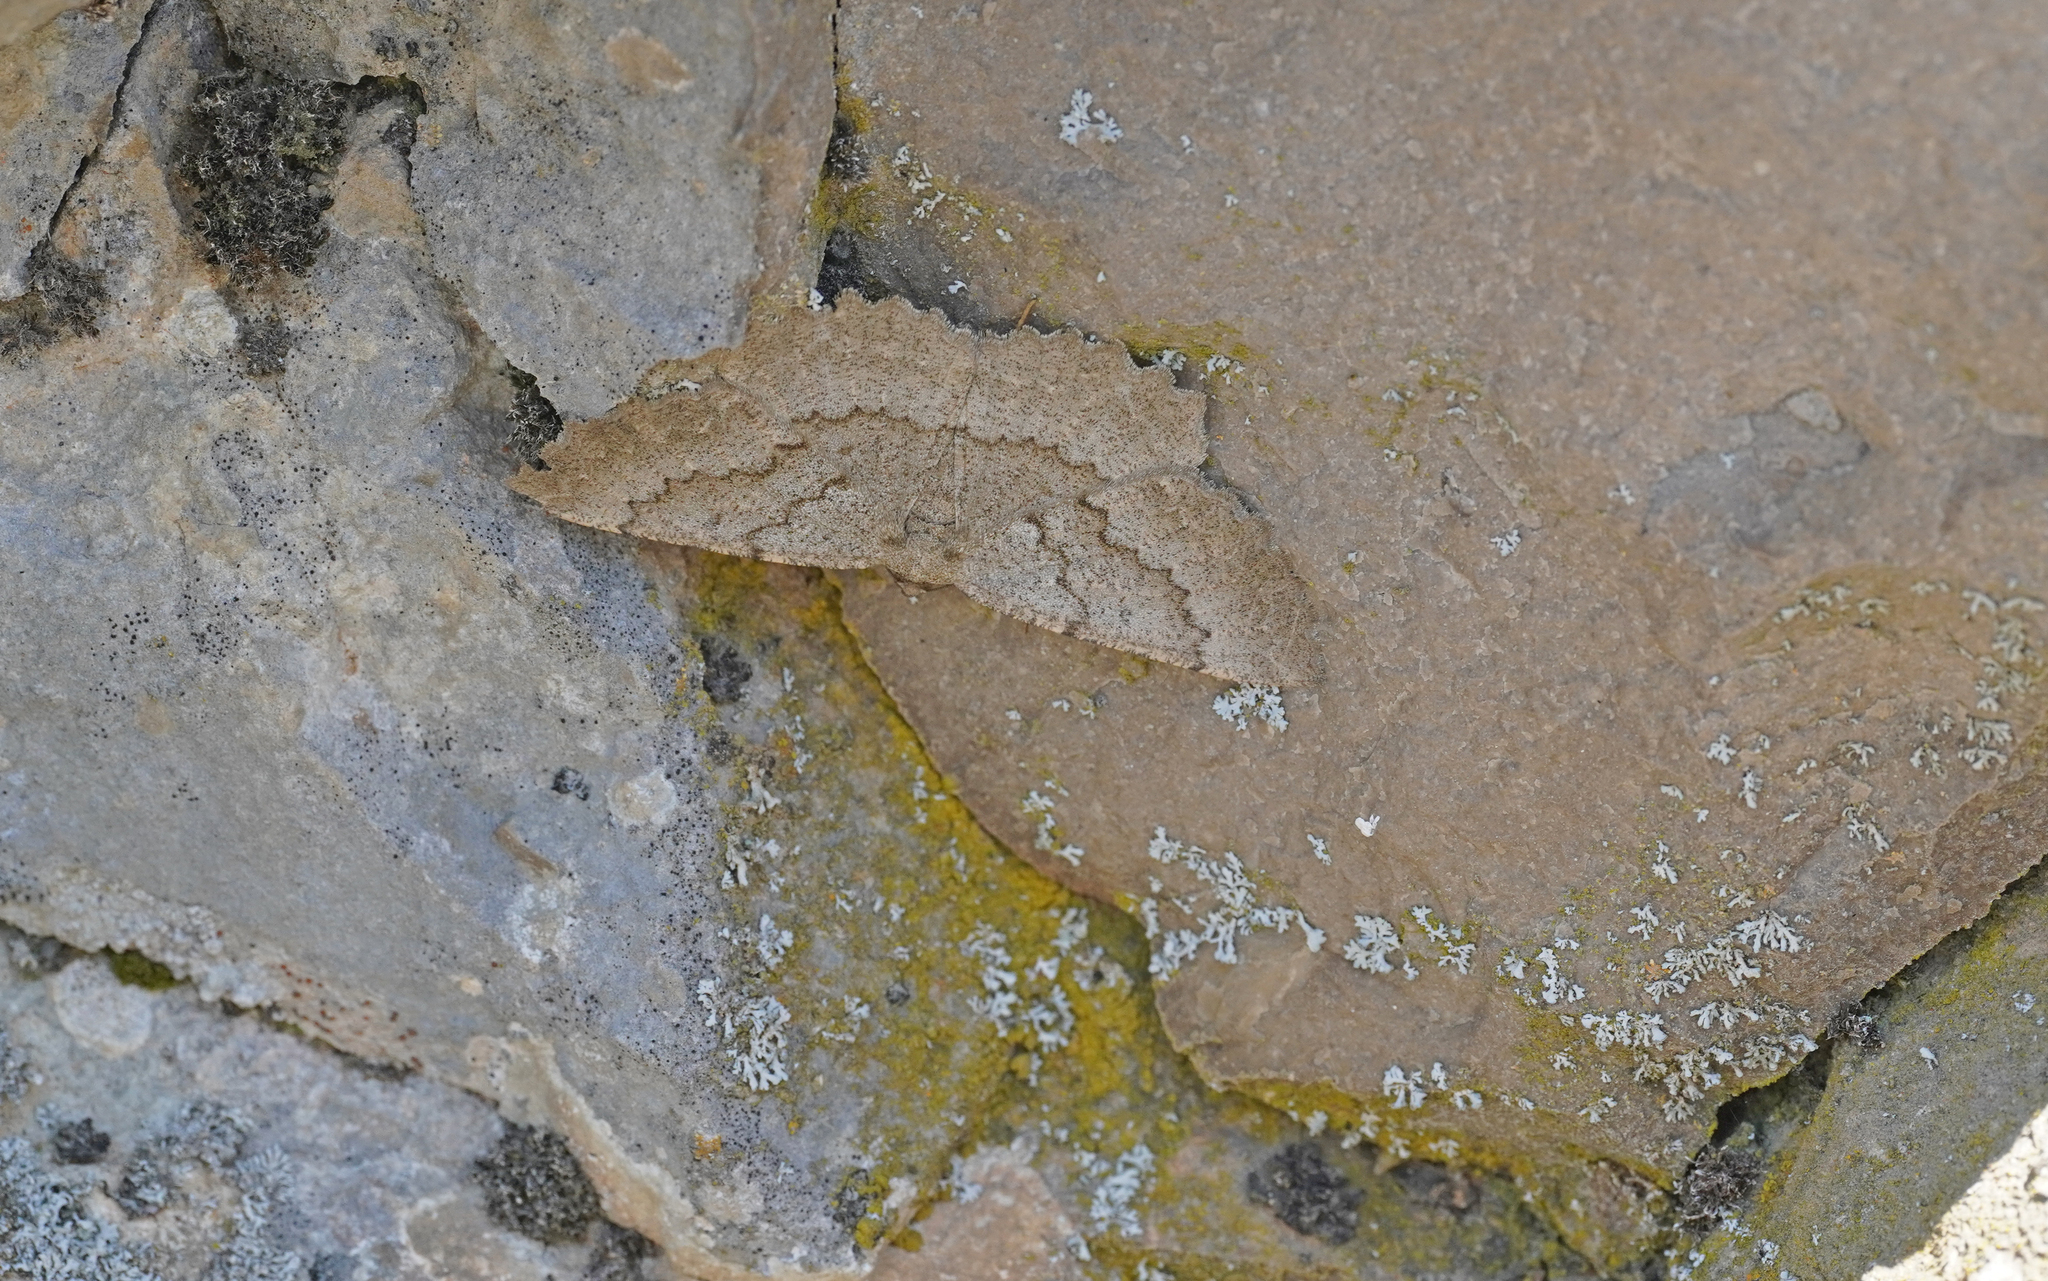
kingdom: Animalia
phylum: Arthropoda
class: Insecta
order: Lepidoptera
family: Geometridae
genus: Gnophos
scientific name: Gnophos furvata
